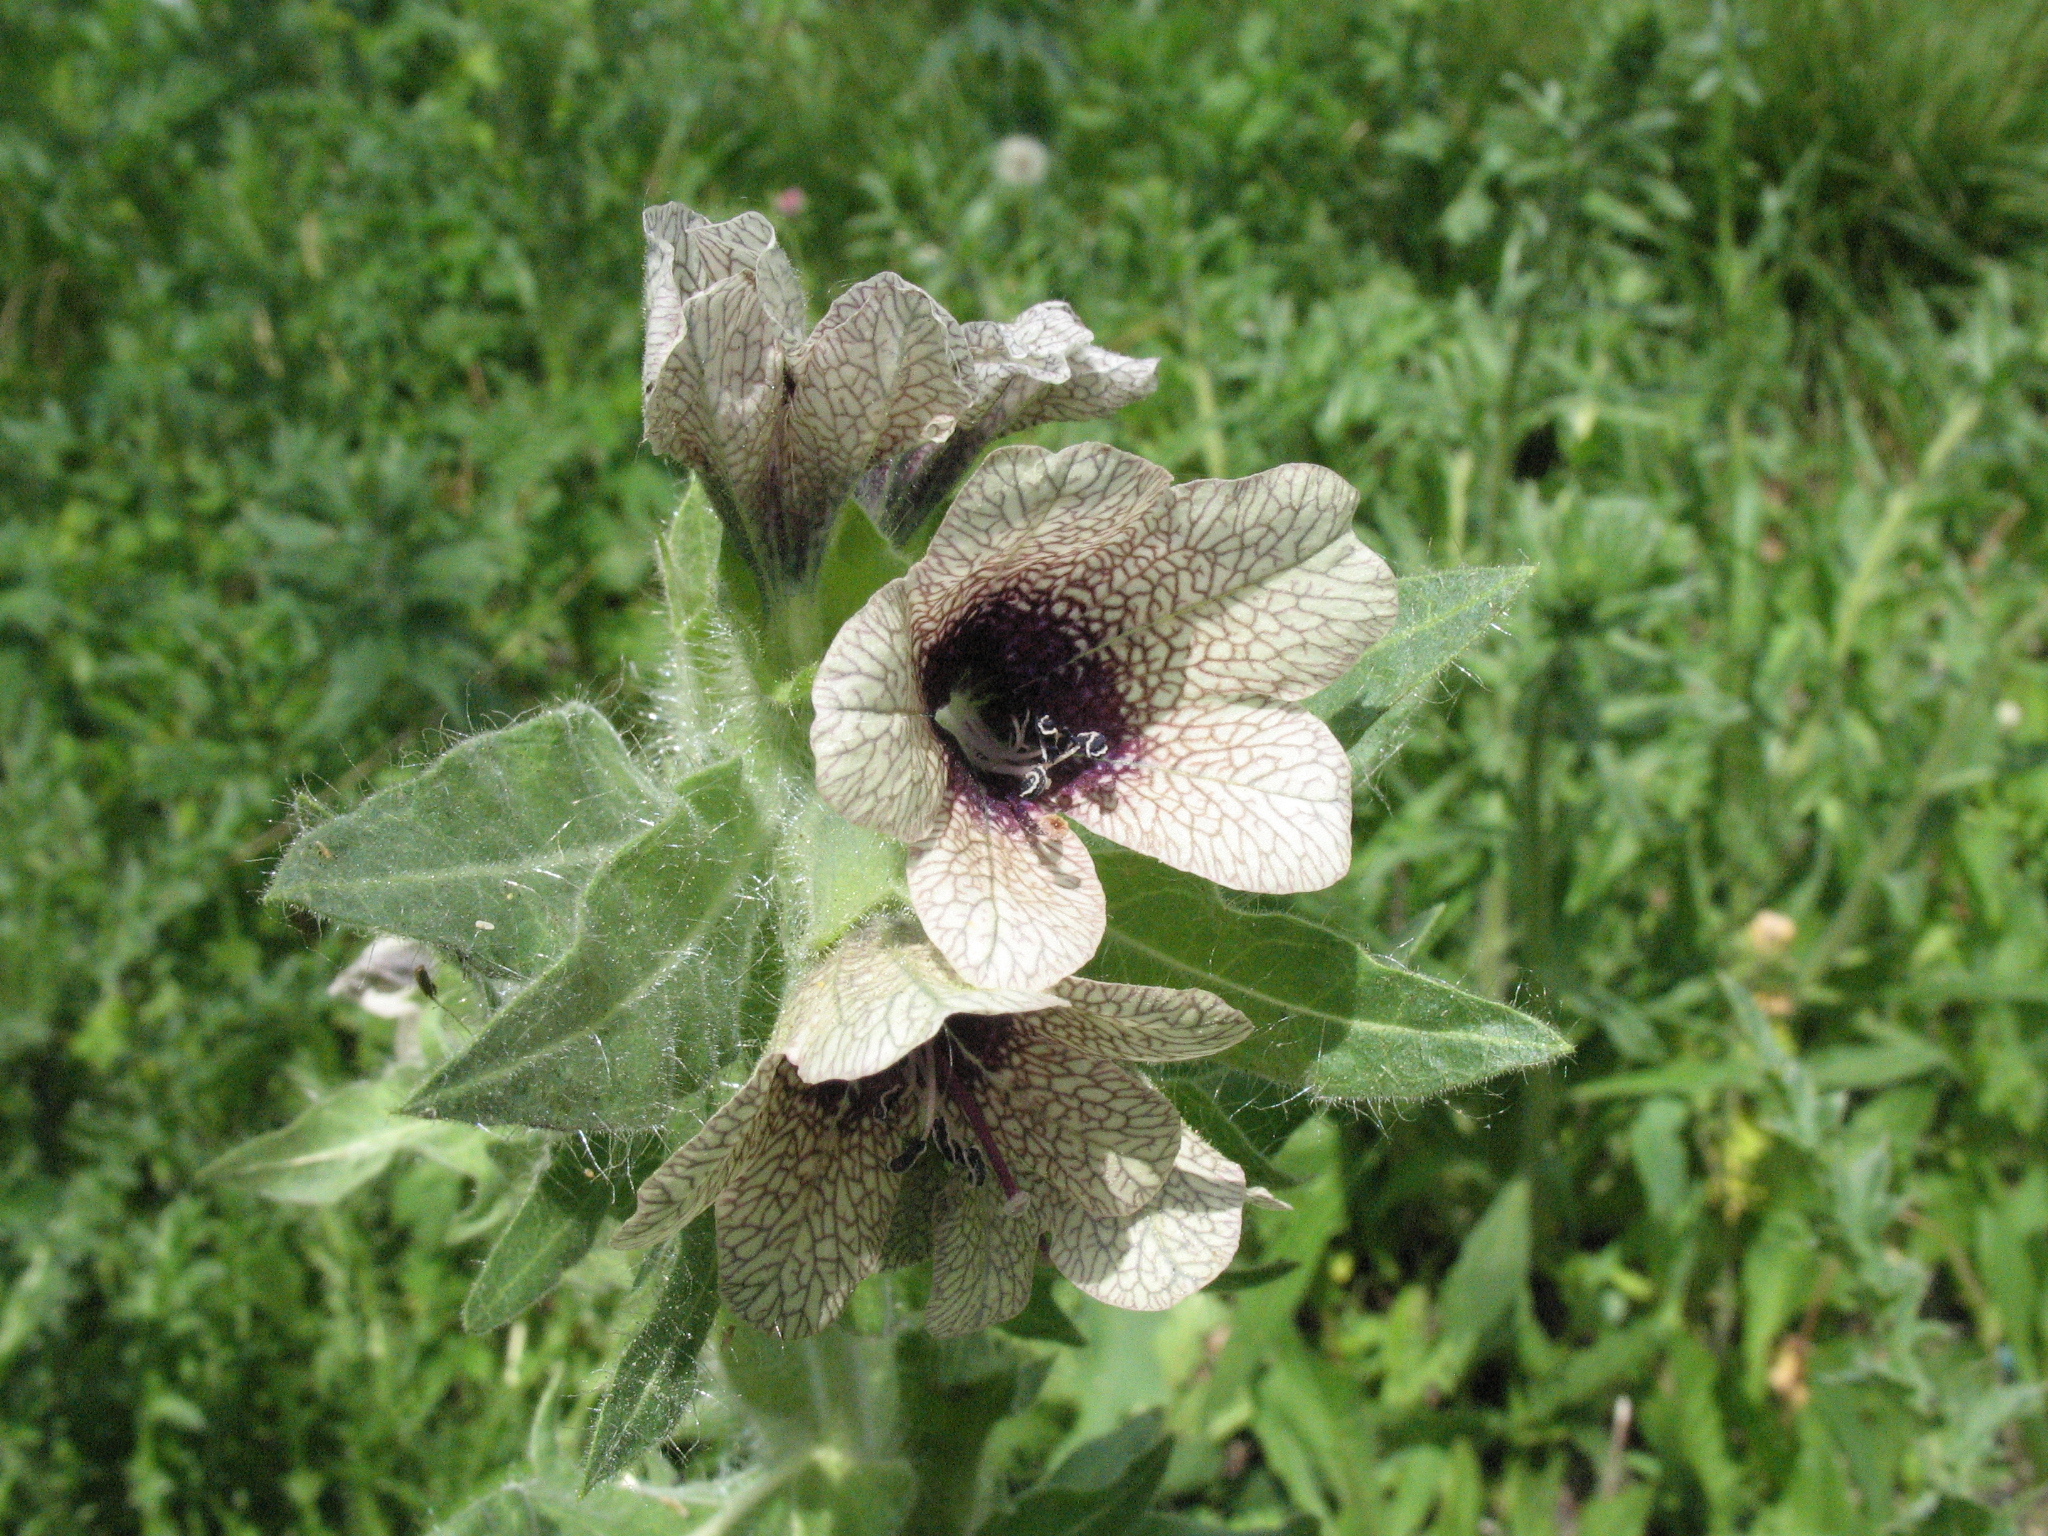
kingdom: Plantae
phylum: Tracheophyta
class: Magnoliopsida
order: Solanales
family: Solanaceae
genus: Hyoscyamus
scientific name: Hyoscyamus niger
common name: Henbane
